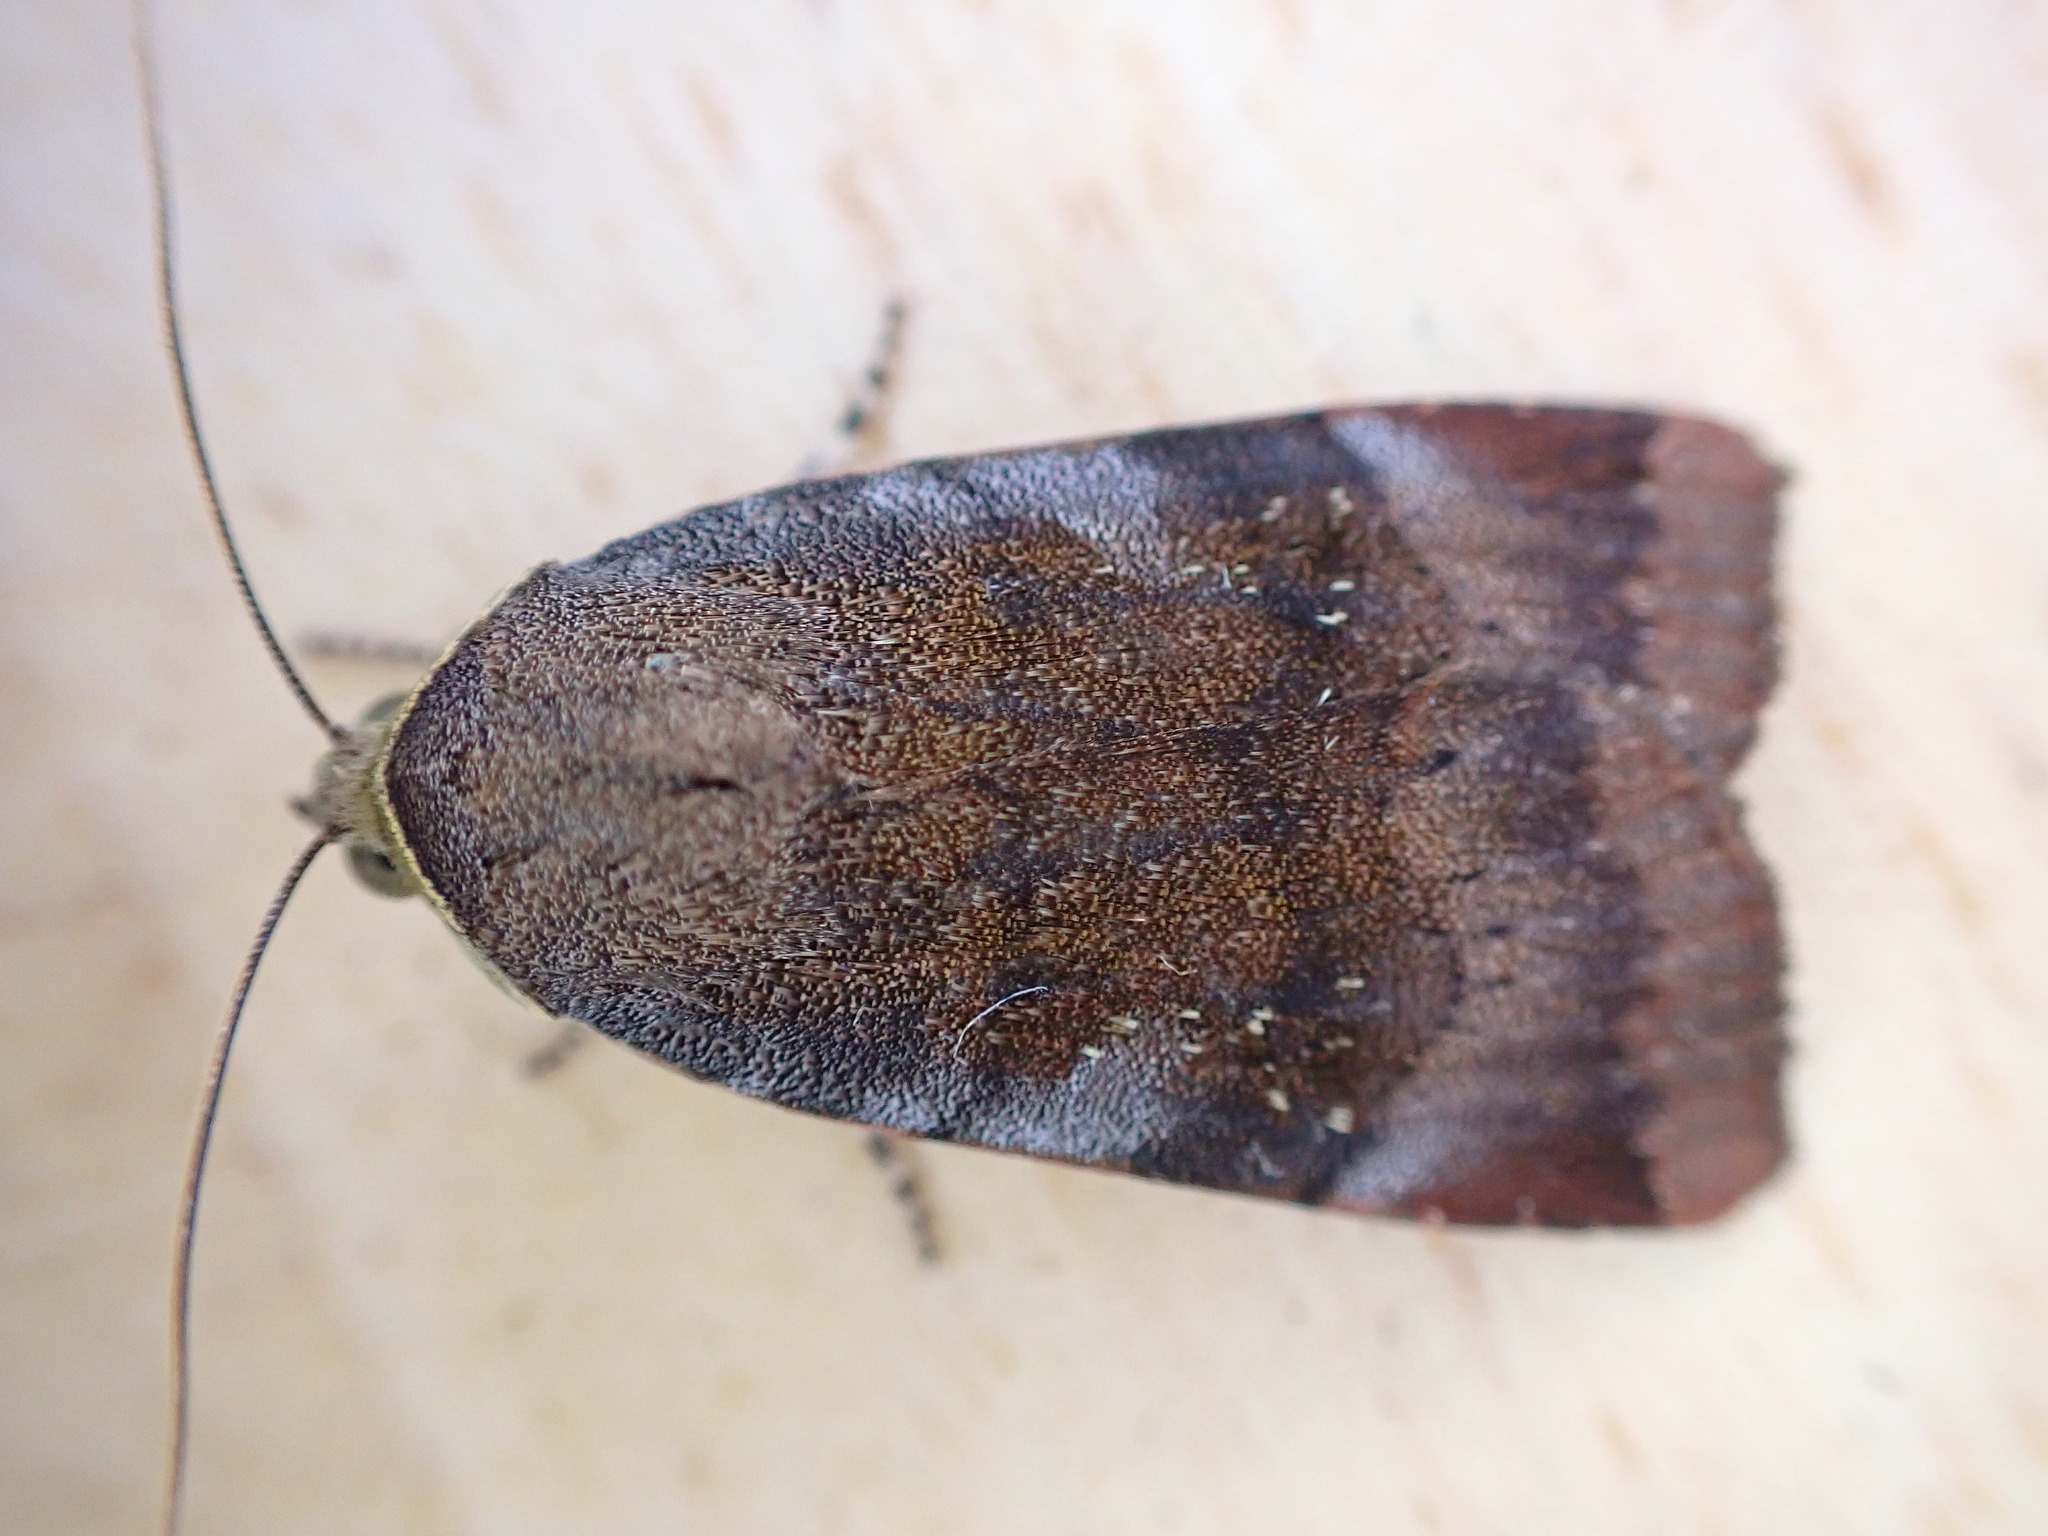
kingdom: Animalia
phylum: Arthropoda
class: Insecta
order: Lepidoptera
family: Noctuidae
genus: Noctua
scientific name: Noctua janthe
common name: Lesser broad-bordered yellow underwing
